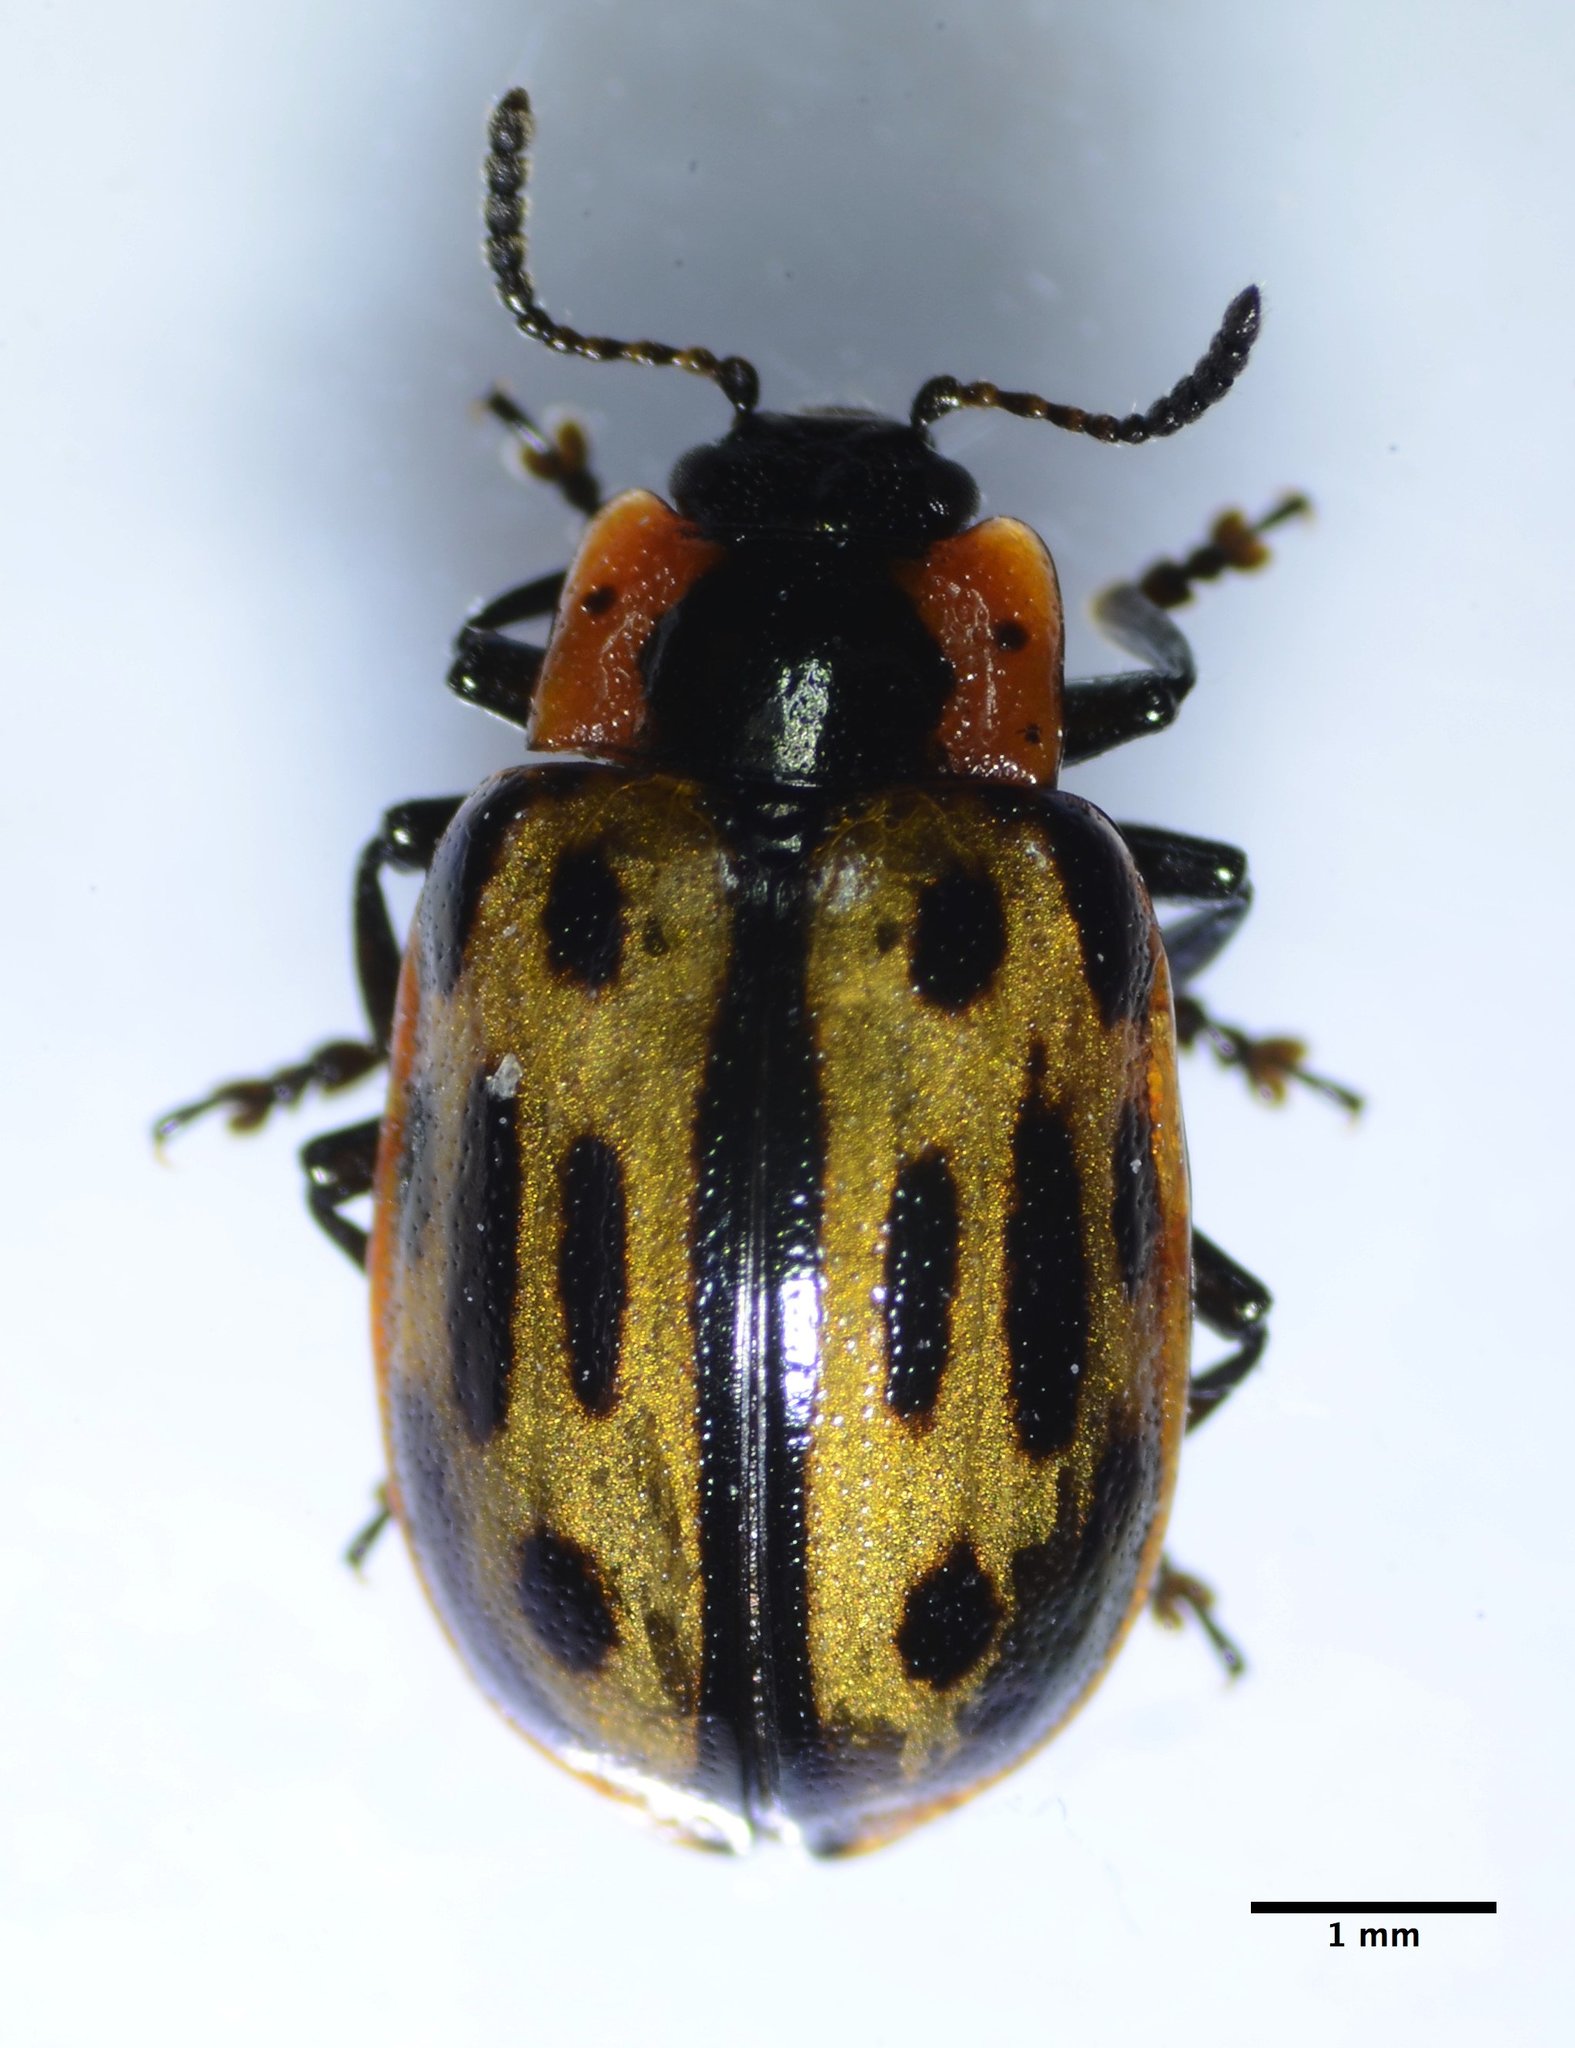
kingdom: Animalia
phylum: Arthropoda
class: Insecta
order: Coleoptera
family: Chrysomelidae
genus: Chrysomela
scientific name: Chrysomela confluens
